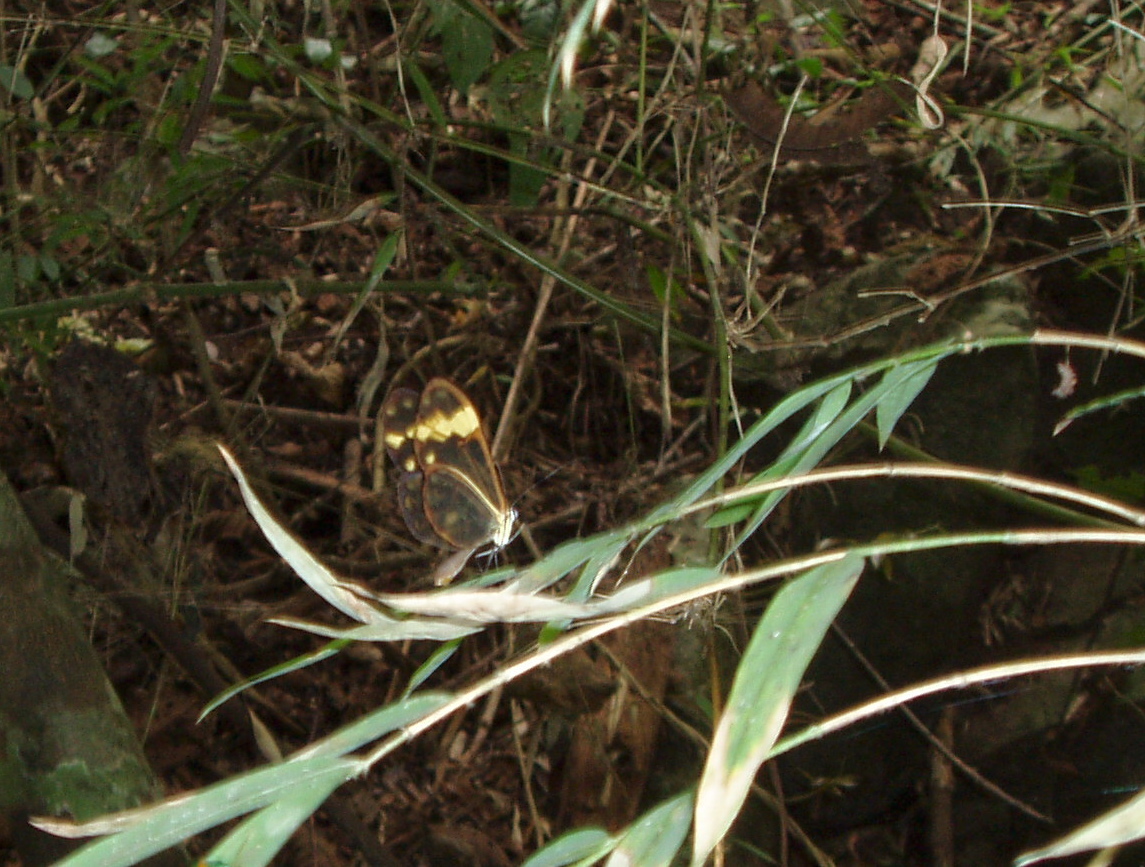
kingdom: Animalia
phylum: Arthropoda
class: Insecta
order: Lepidoptera
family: Nymphalidae
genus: Hypomenitis
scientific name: Hypomenitis
